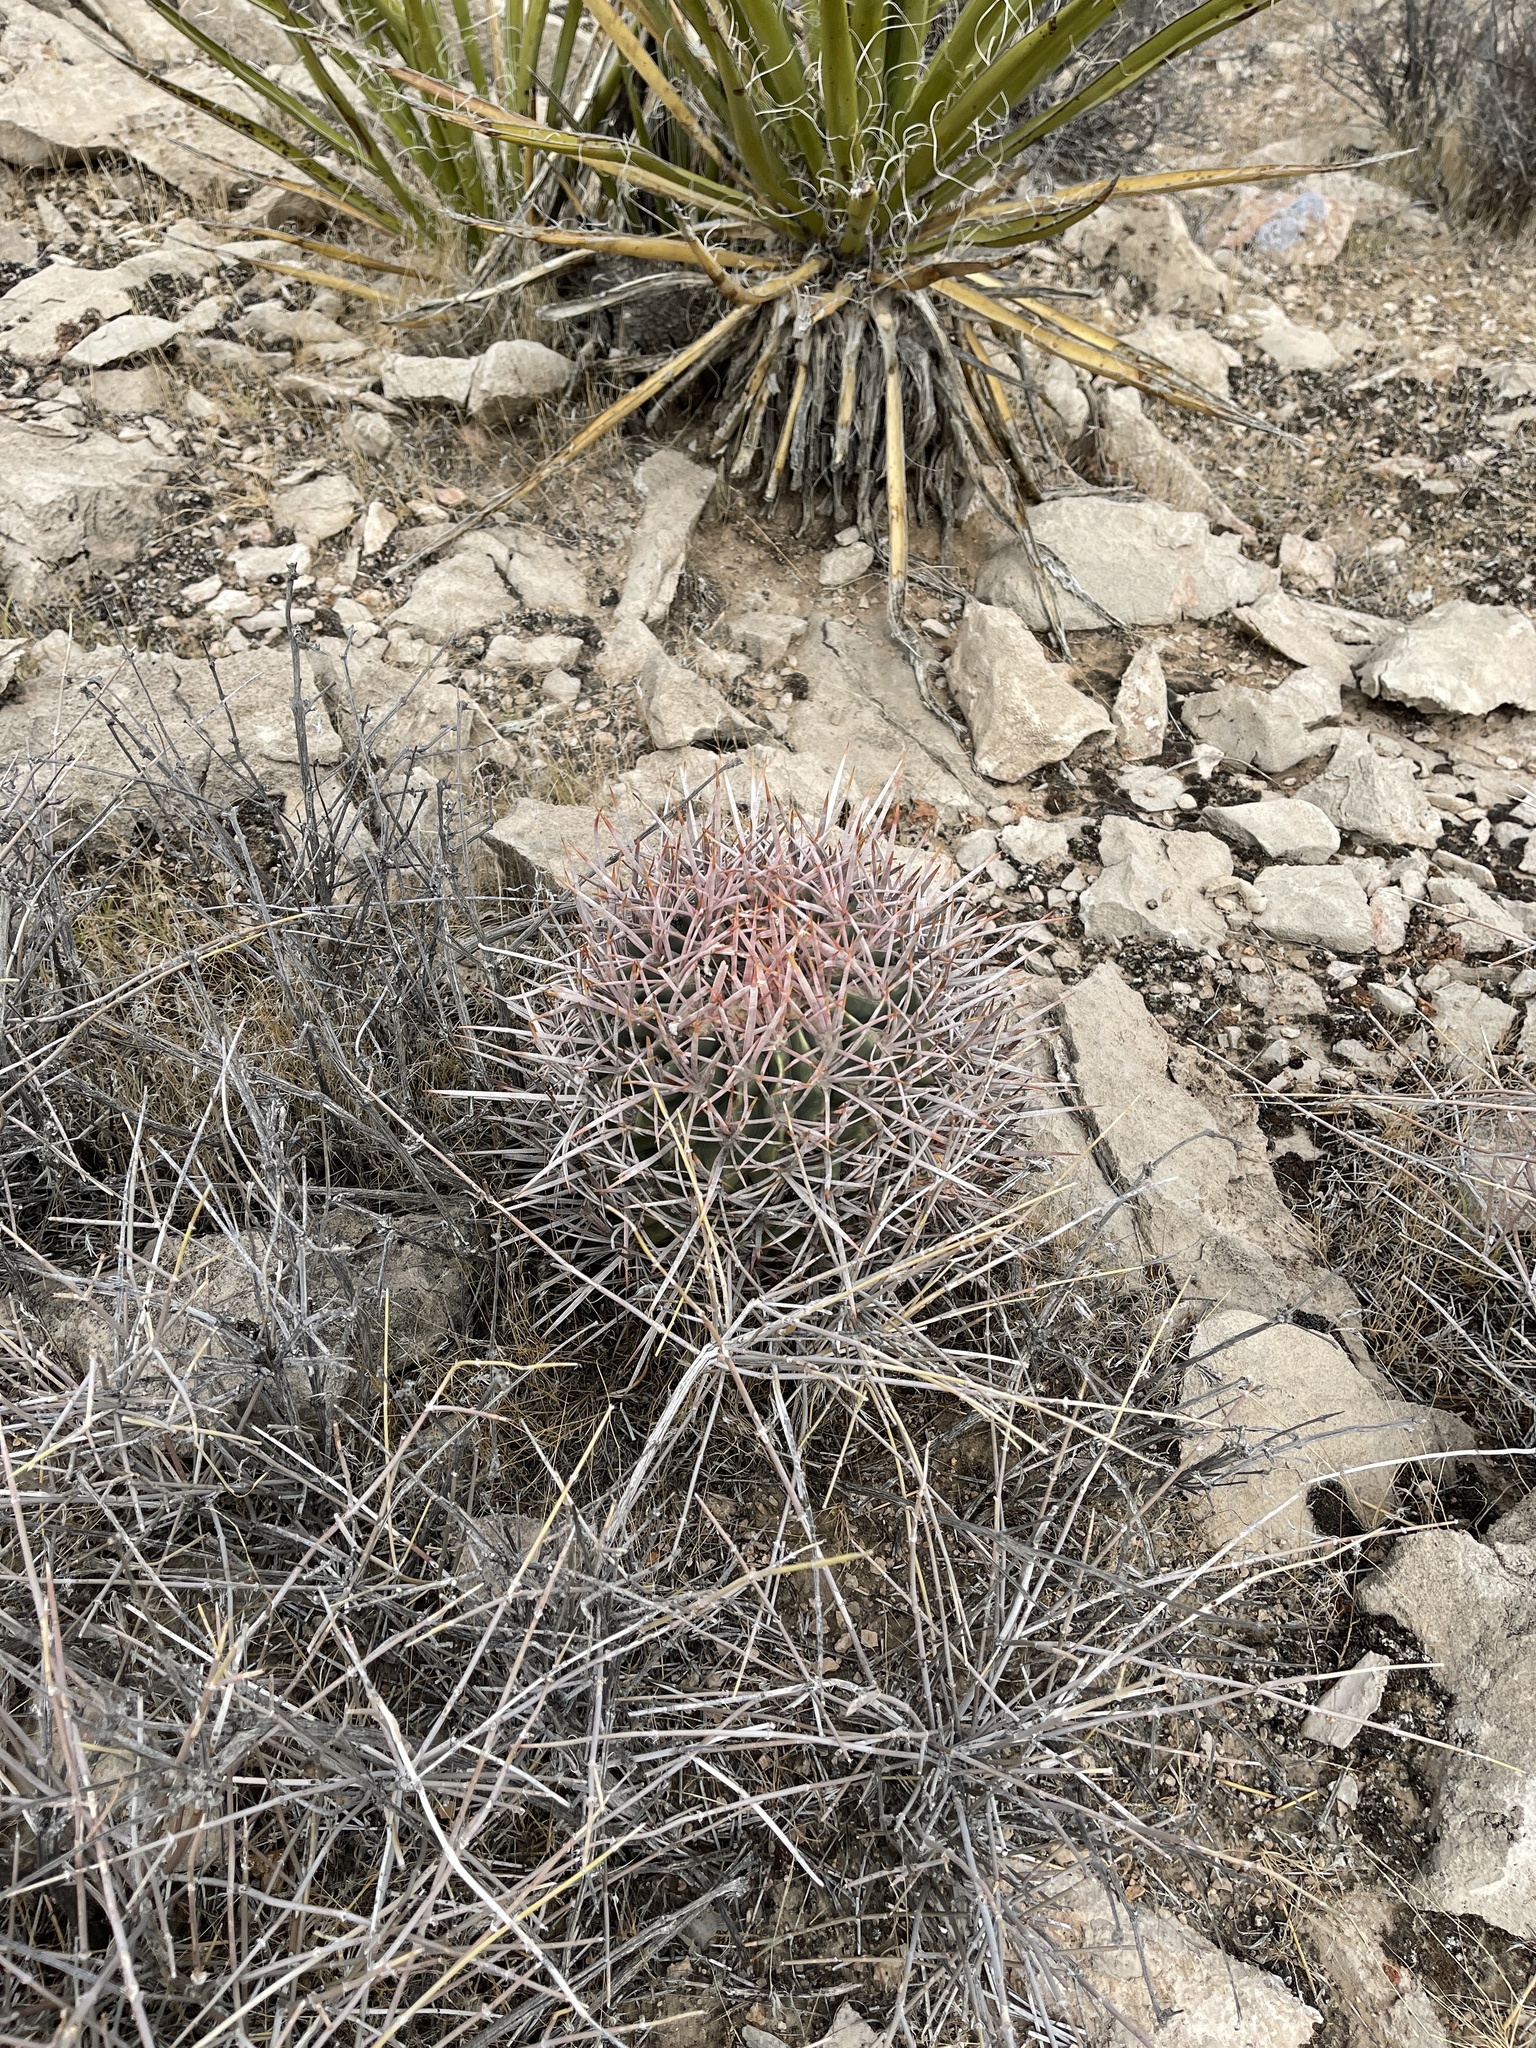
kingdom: Plantae
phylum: Tracheophyta
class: Magnoliopsida
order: Caryophyllales
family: Cactaceae
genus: Echinocactus
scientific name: Echinocactus polycephalus
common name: Cottontop cactus
